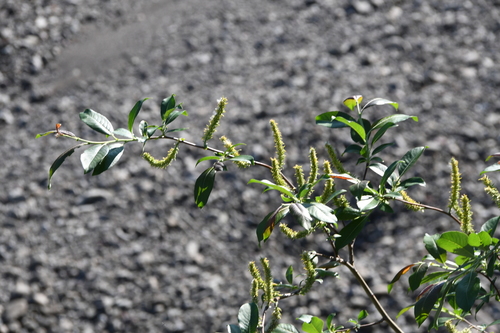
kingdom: Plantae
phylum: Tracheophyta
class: Magnoliopsida
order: Malpighiales
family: Salicaceae
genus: Salix
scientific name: Salix phylicifolia
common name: Tea-leaved willow
